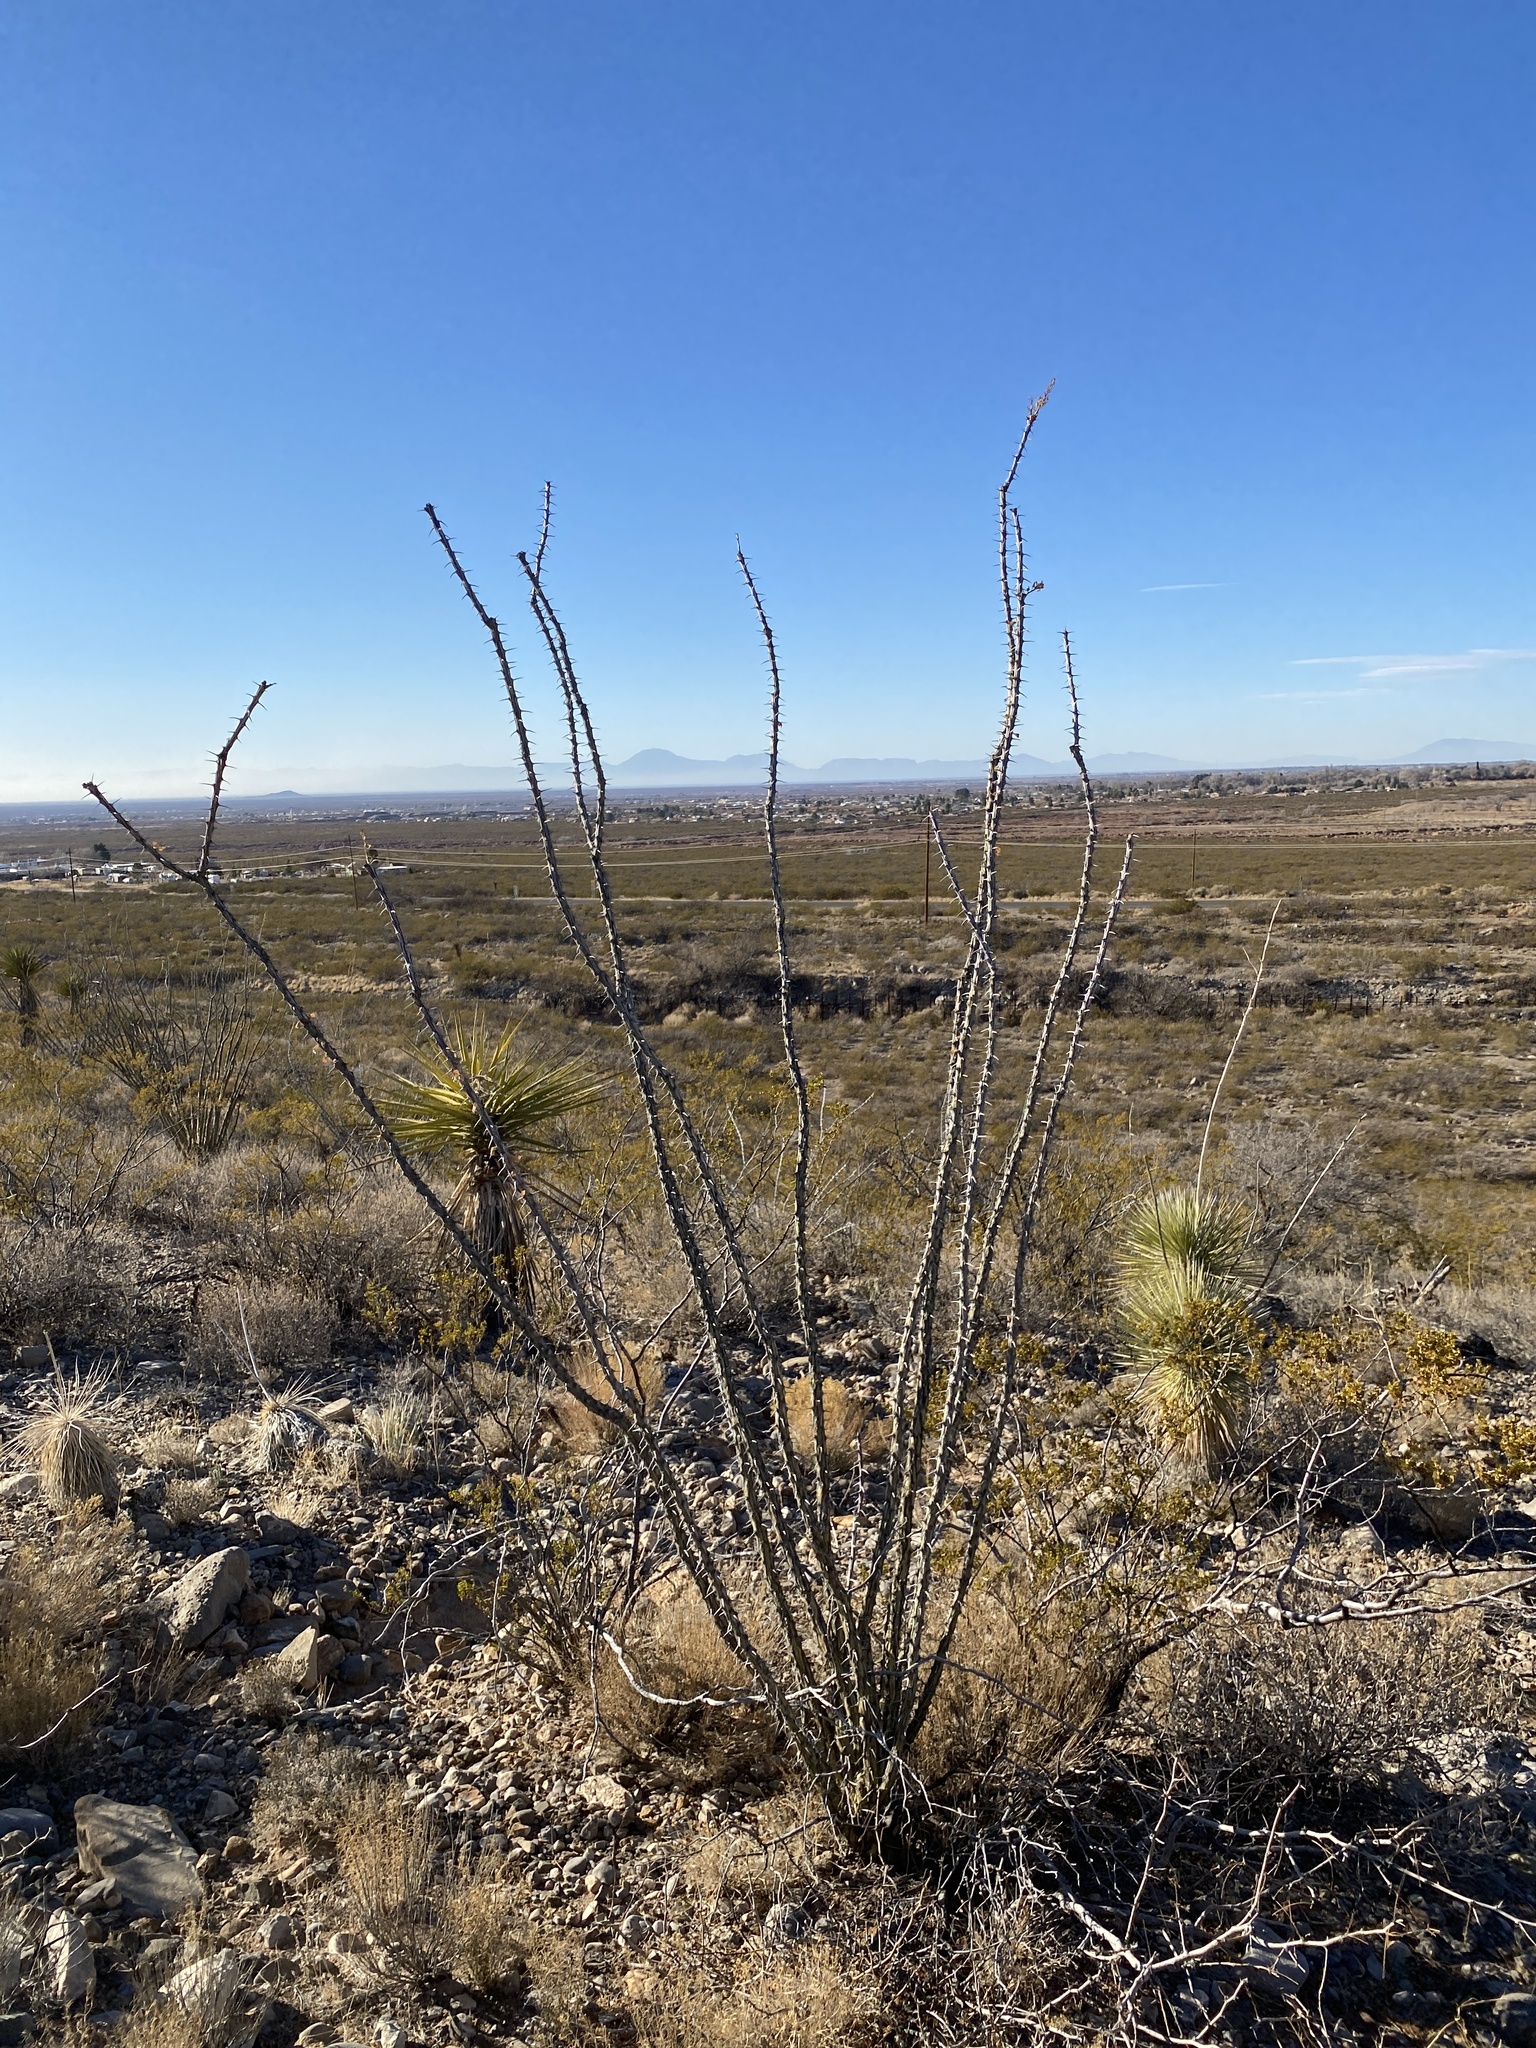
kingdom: Plantae
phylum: Tracheophyta
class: Magnoliopsida
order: Ericales
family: Fouquieriaceae
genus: Fouquieria
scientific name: Fouquieria splendens
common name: Vine-cactus
